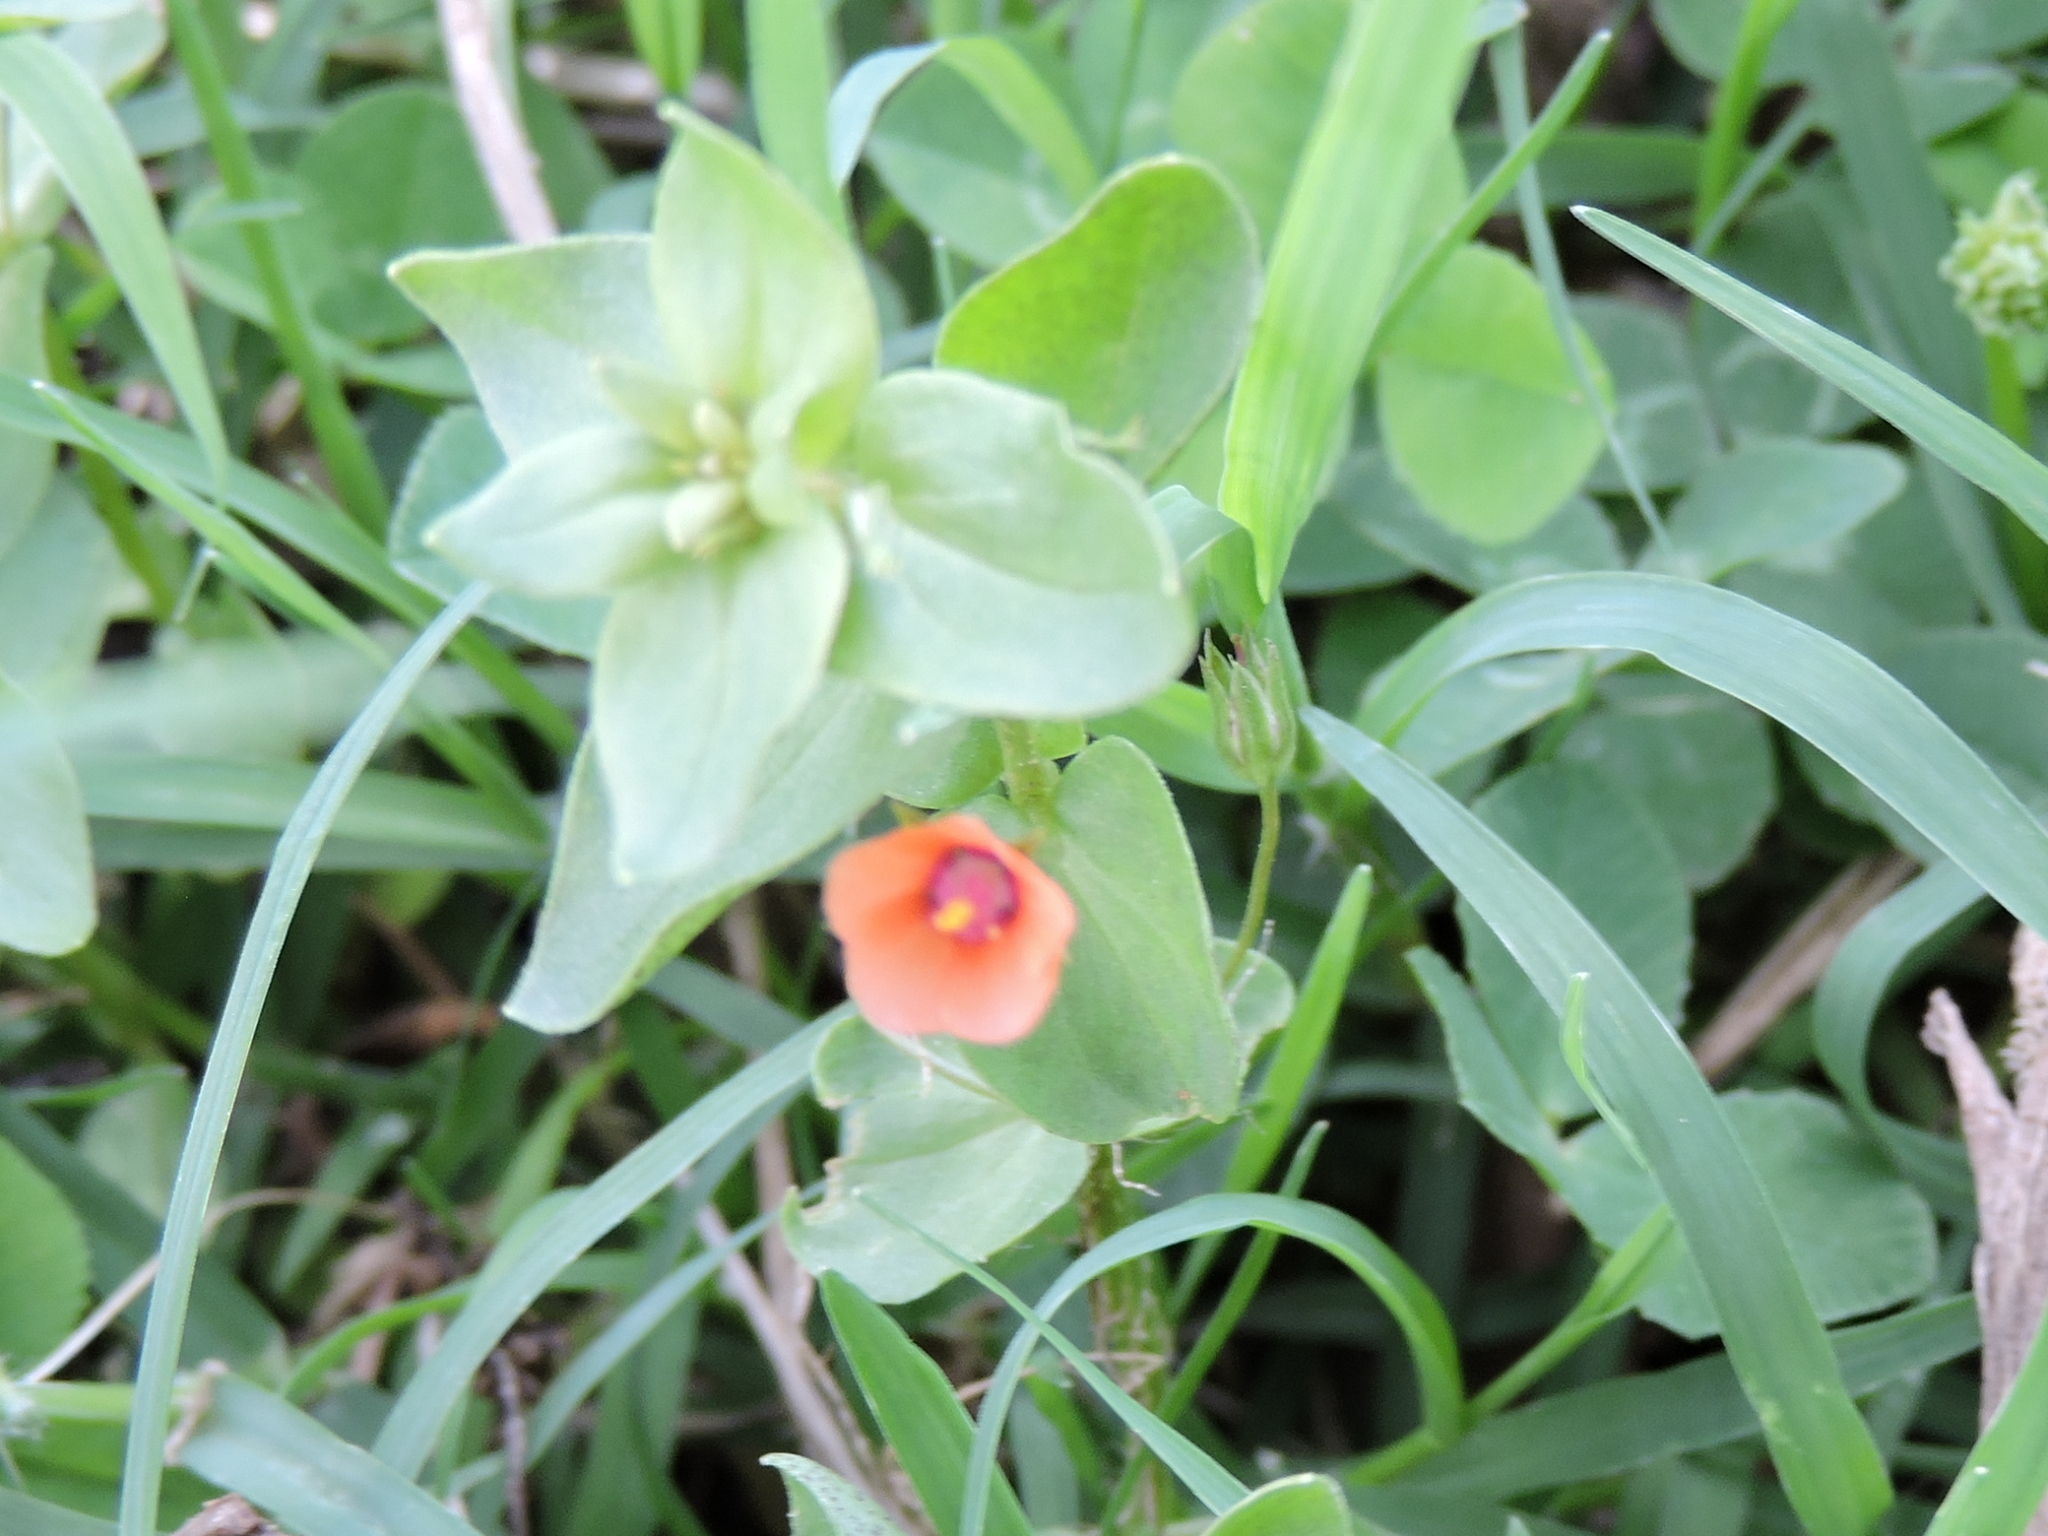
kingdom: Plantae
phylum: Tracheophyta
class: Magnoliopsida
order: Ericales
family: Primulaceae
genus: Lysimachia
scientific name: Lysimachia arvensis
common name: Scarlet pimpernel
